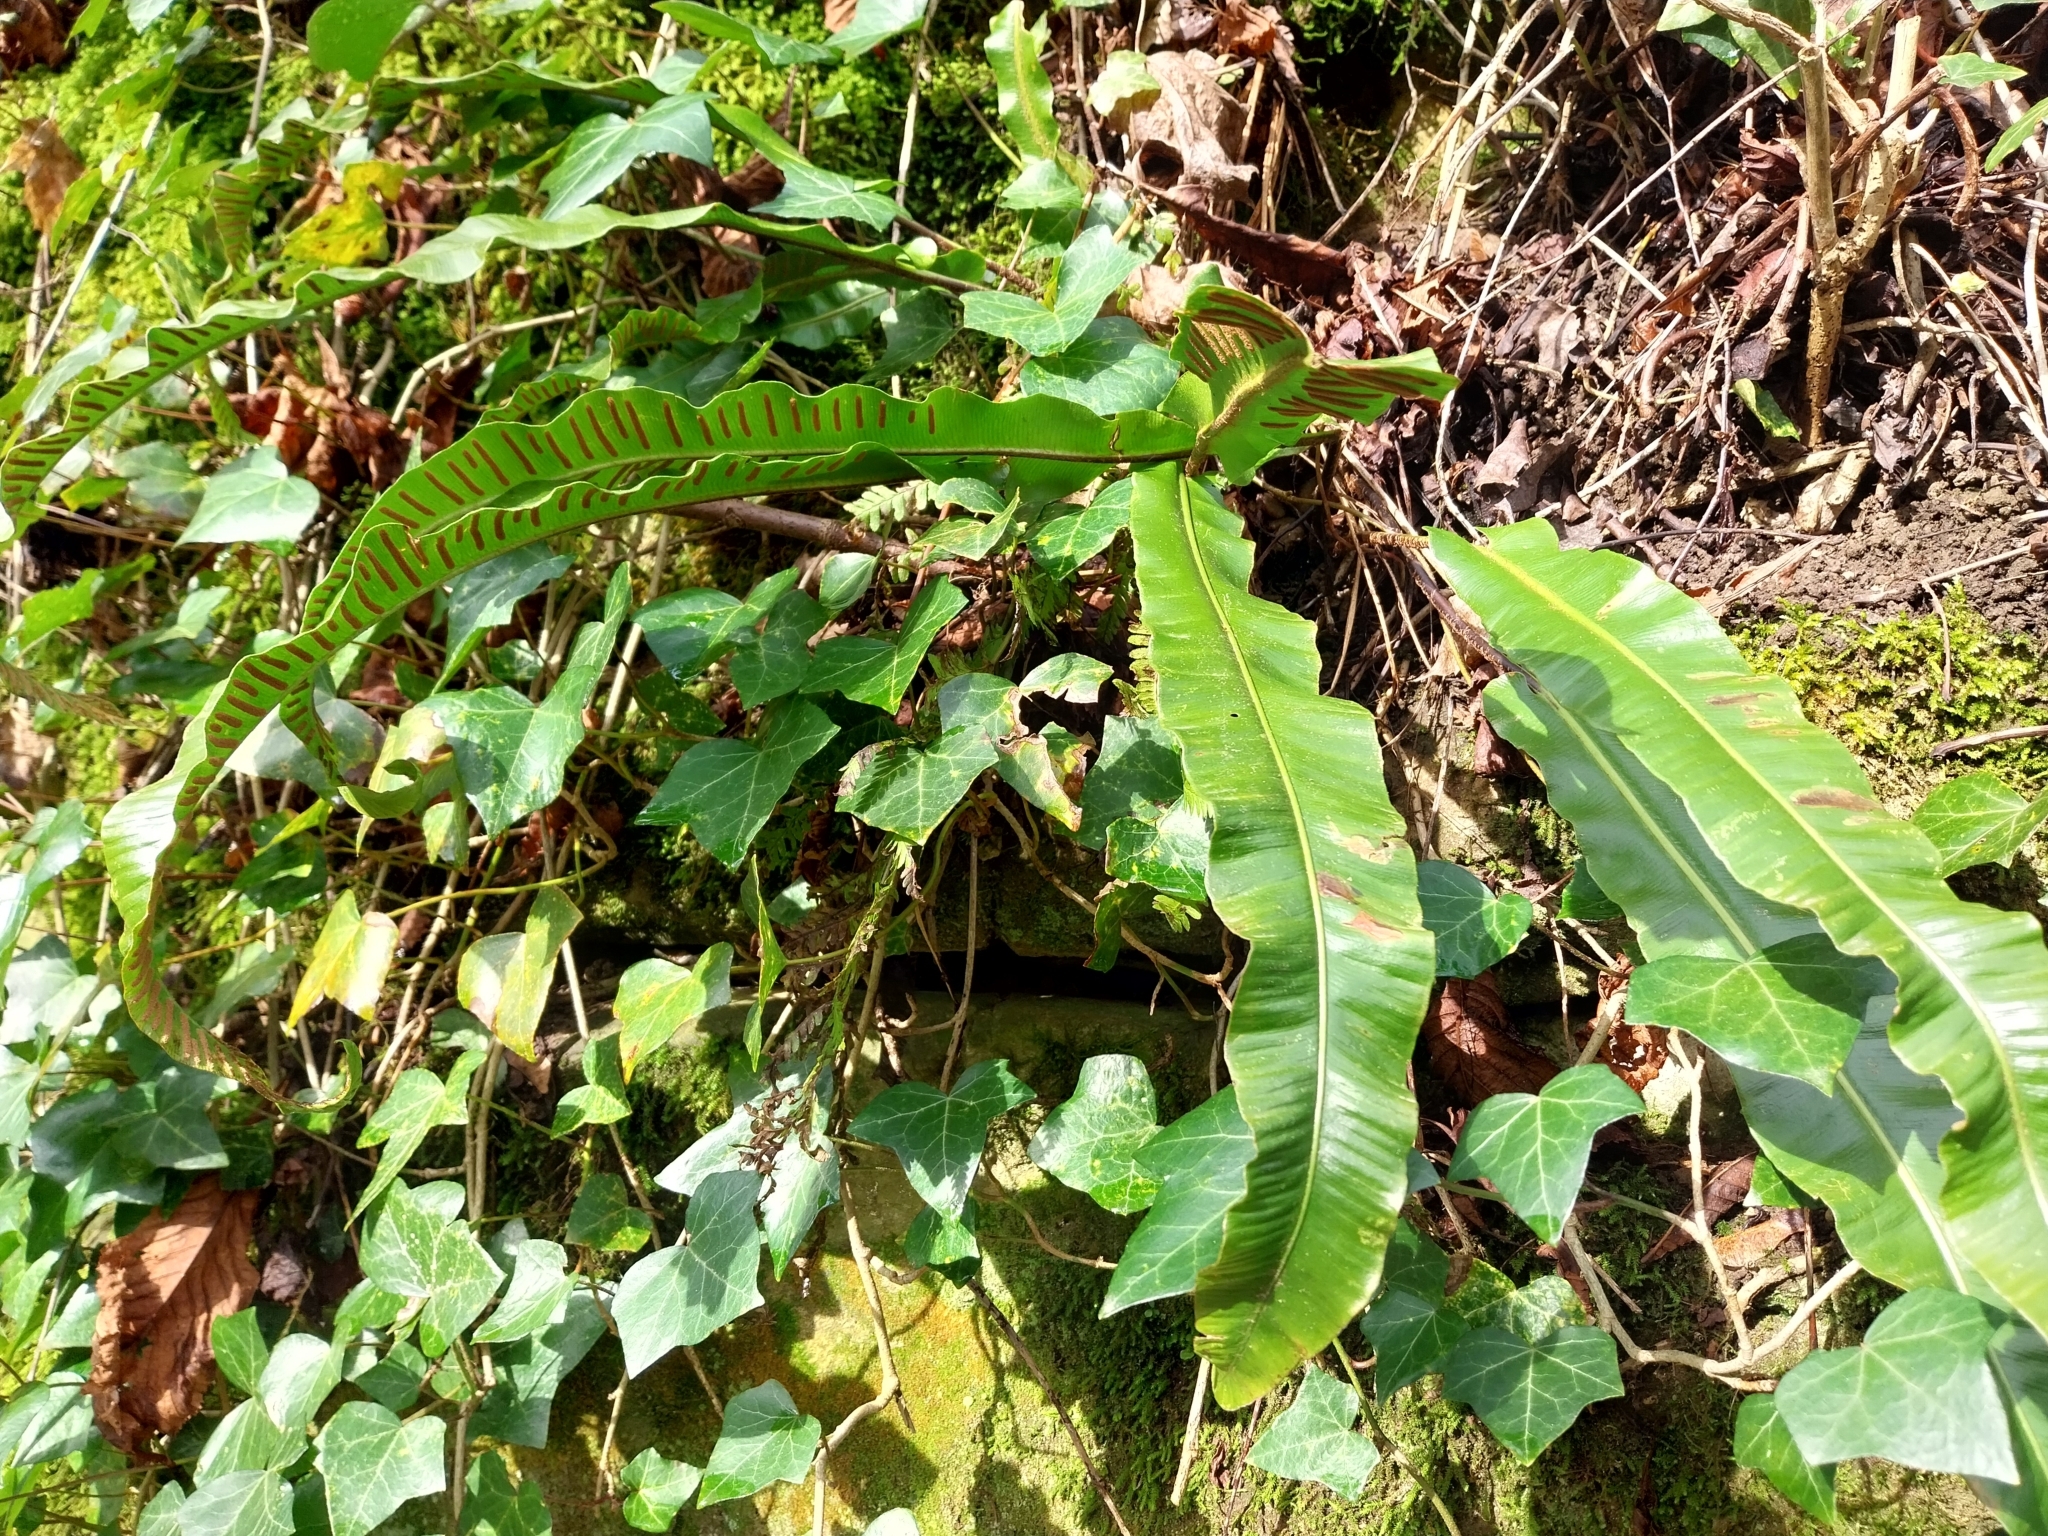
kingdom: Plantae
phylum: Tracheophyta
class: Polypodiopsida
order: Polypodiales
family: Aspleniaceae
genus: Asplenium
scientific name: Asplenium scolopendrium
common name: Hart's-tongue fern
